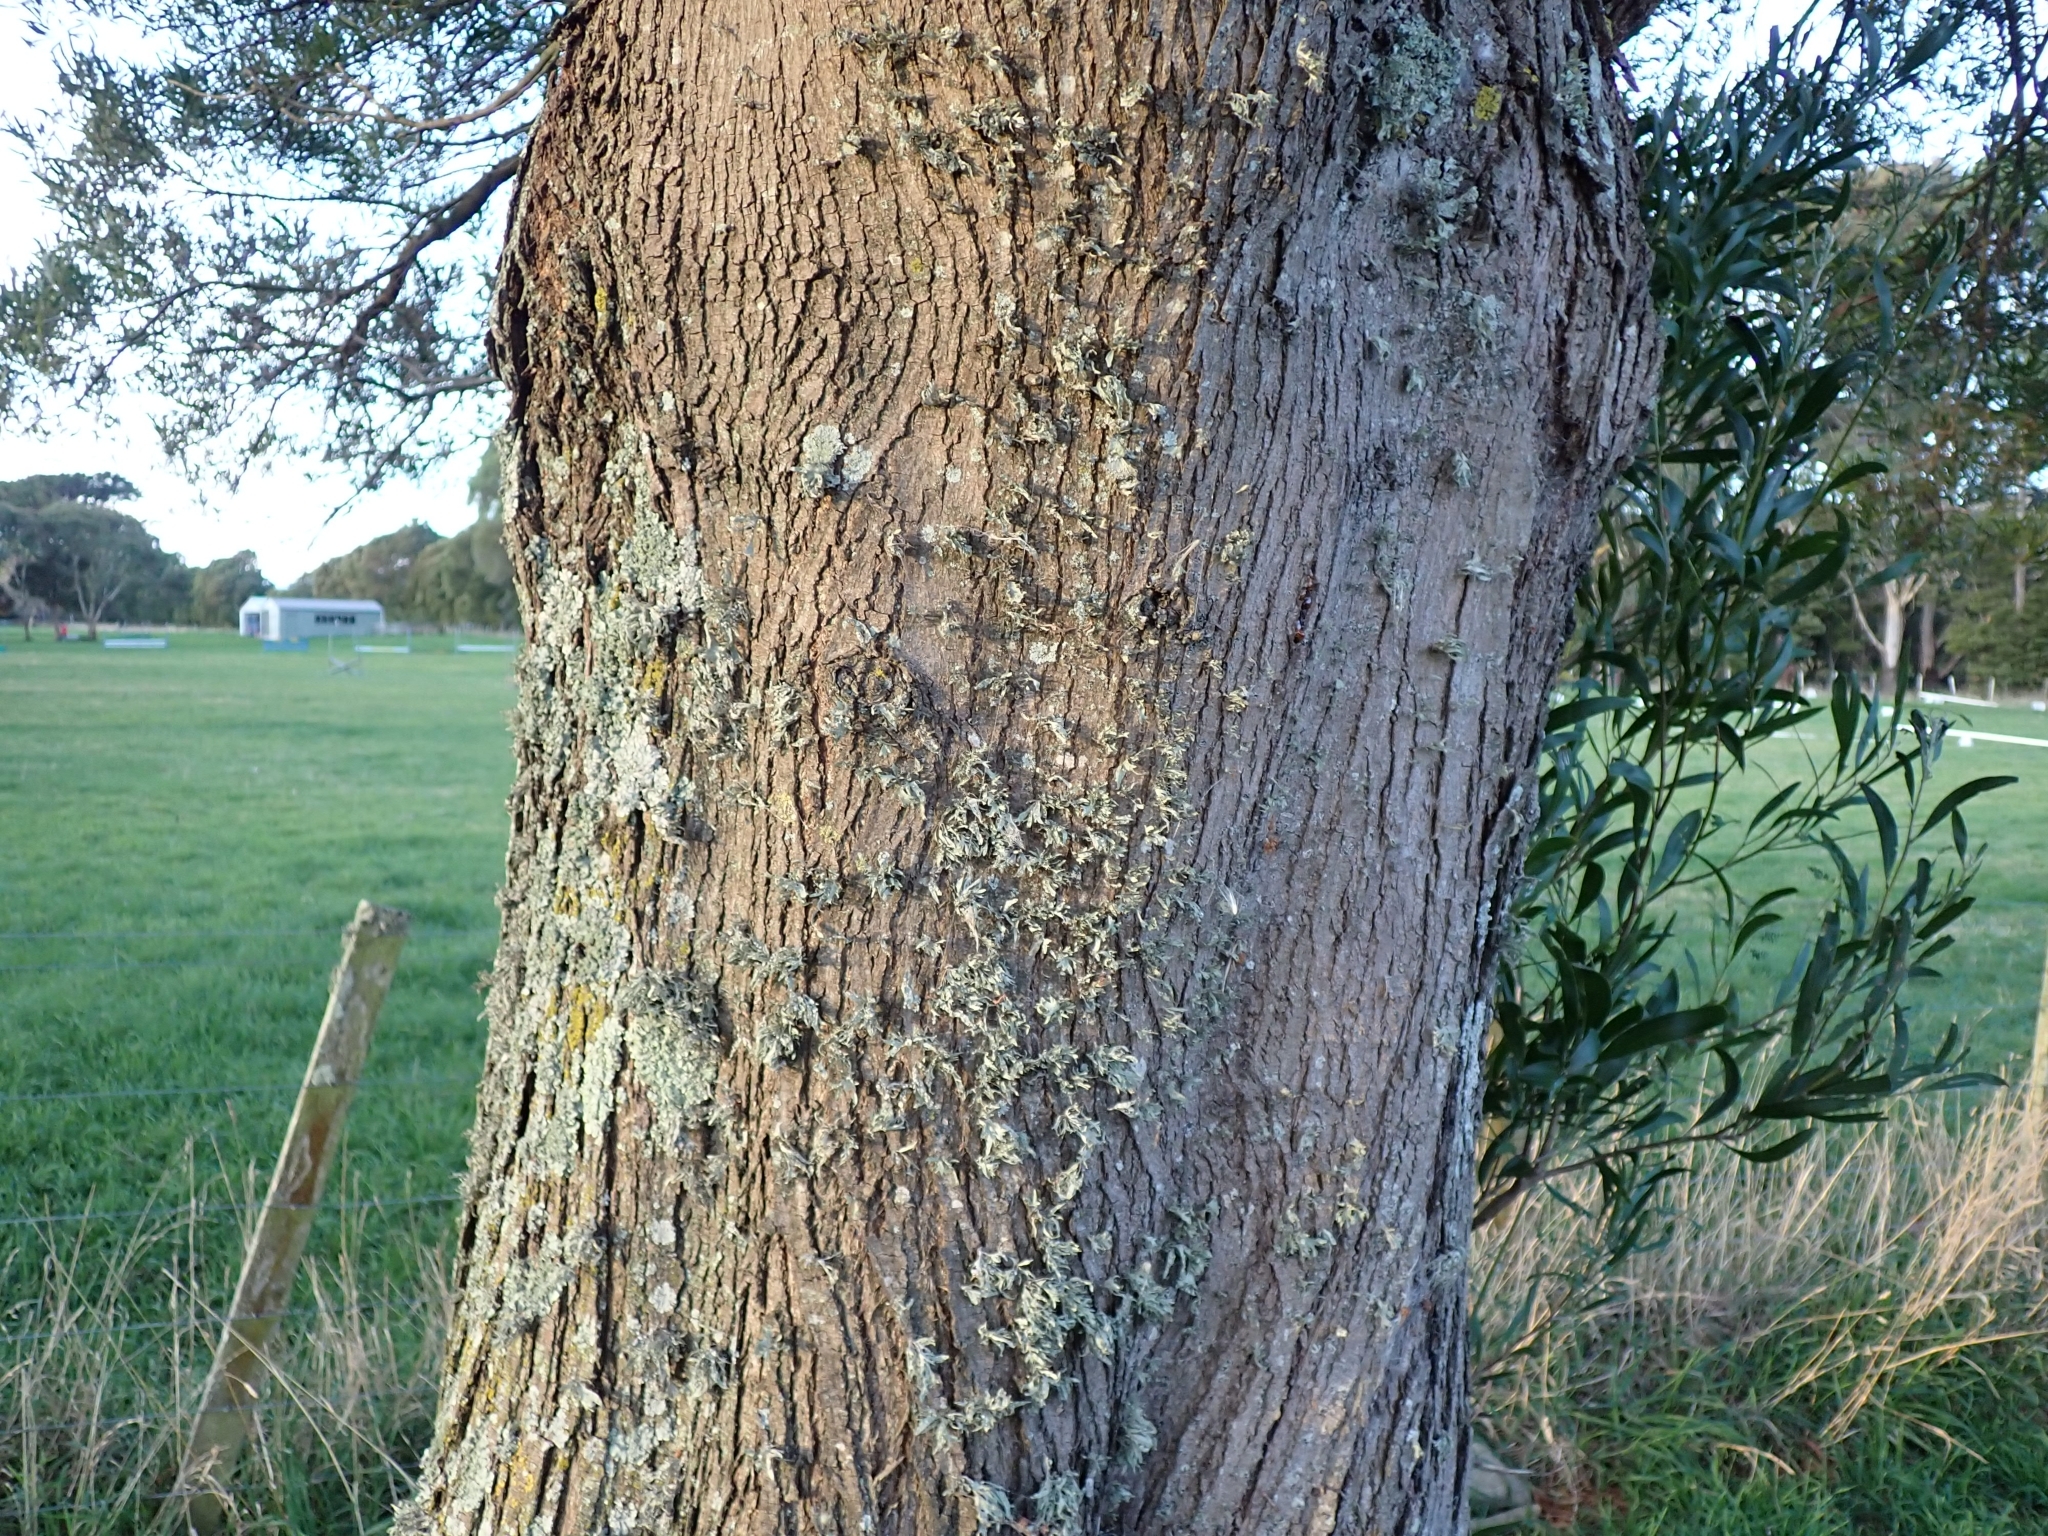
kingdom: Plantae
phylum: Tracheophyta
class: Magnoliopsida
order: Fabales
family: Fabaceae
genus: Acacia
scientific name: Acacia melanoxylon
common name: Blackwood
